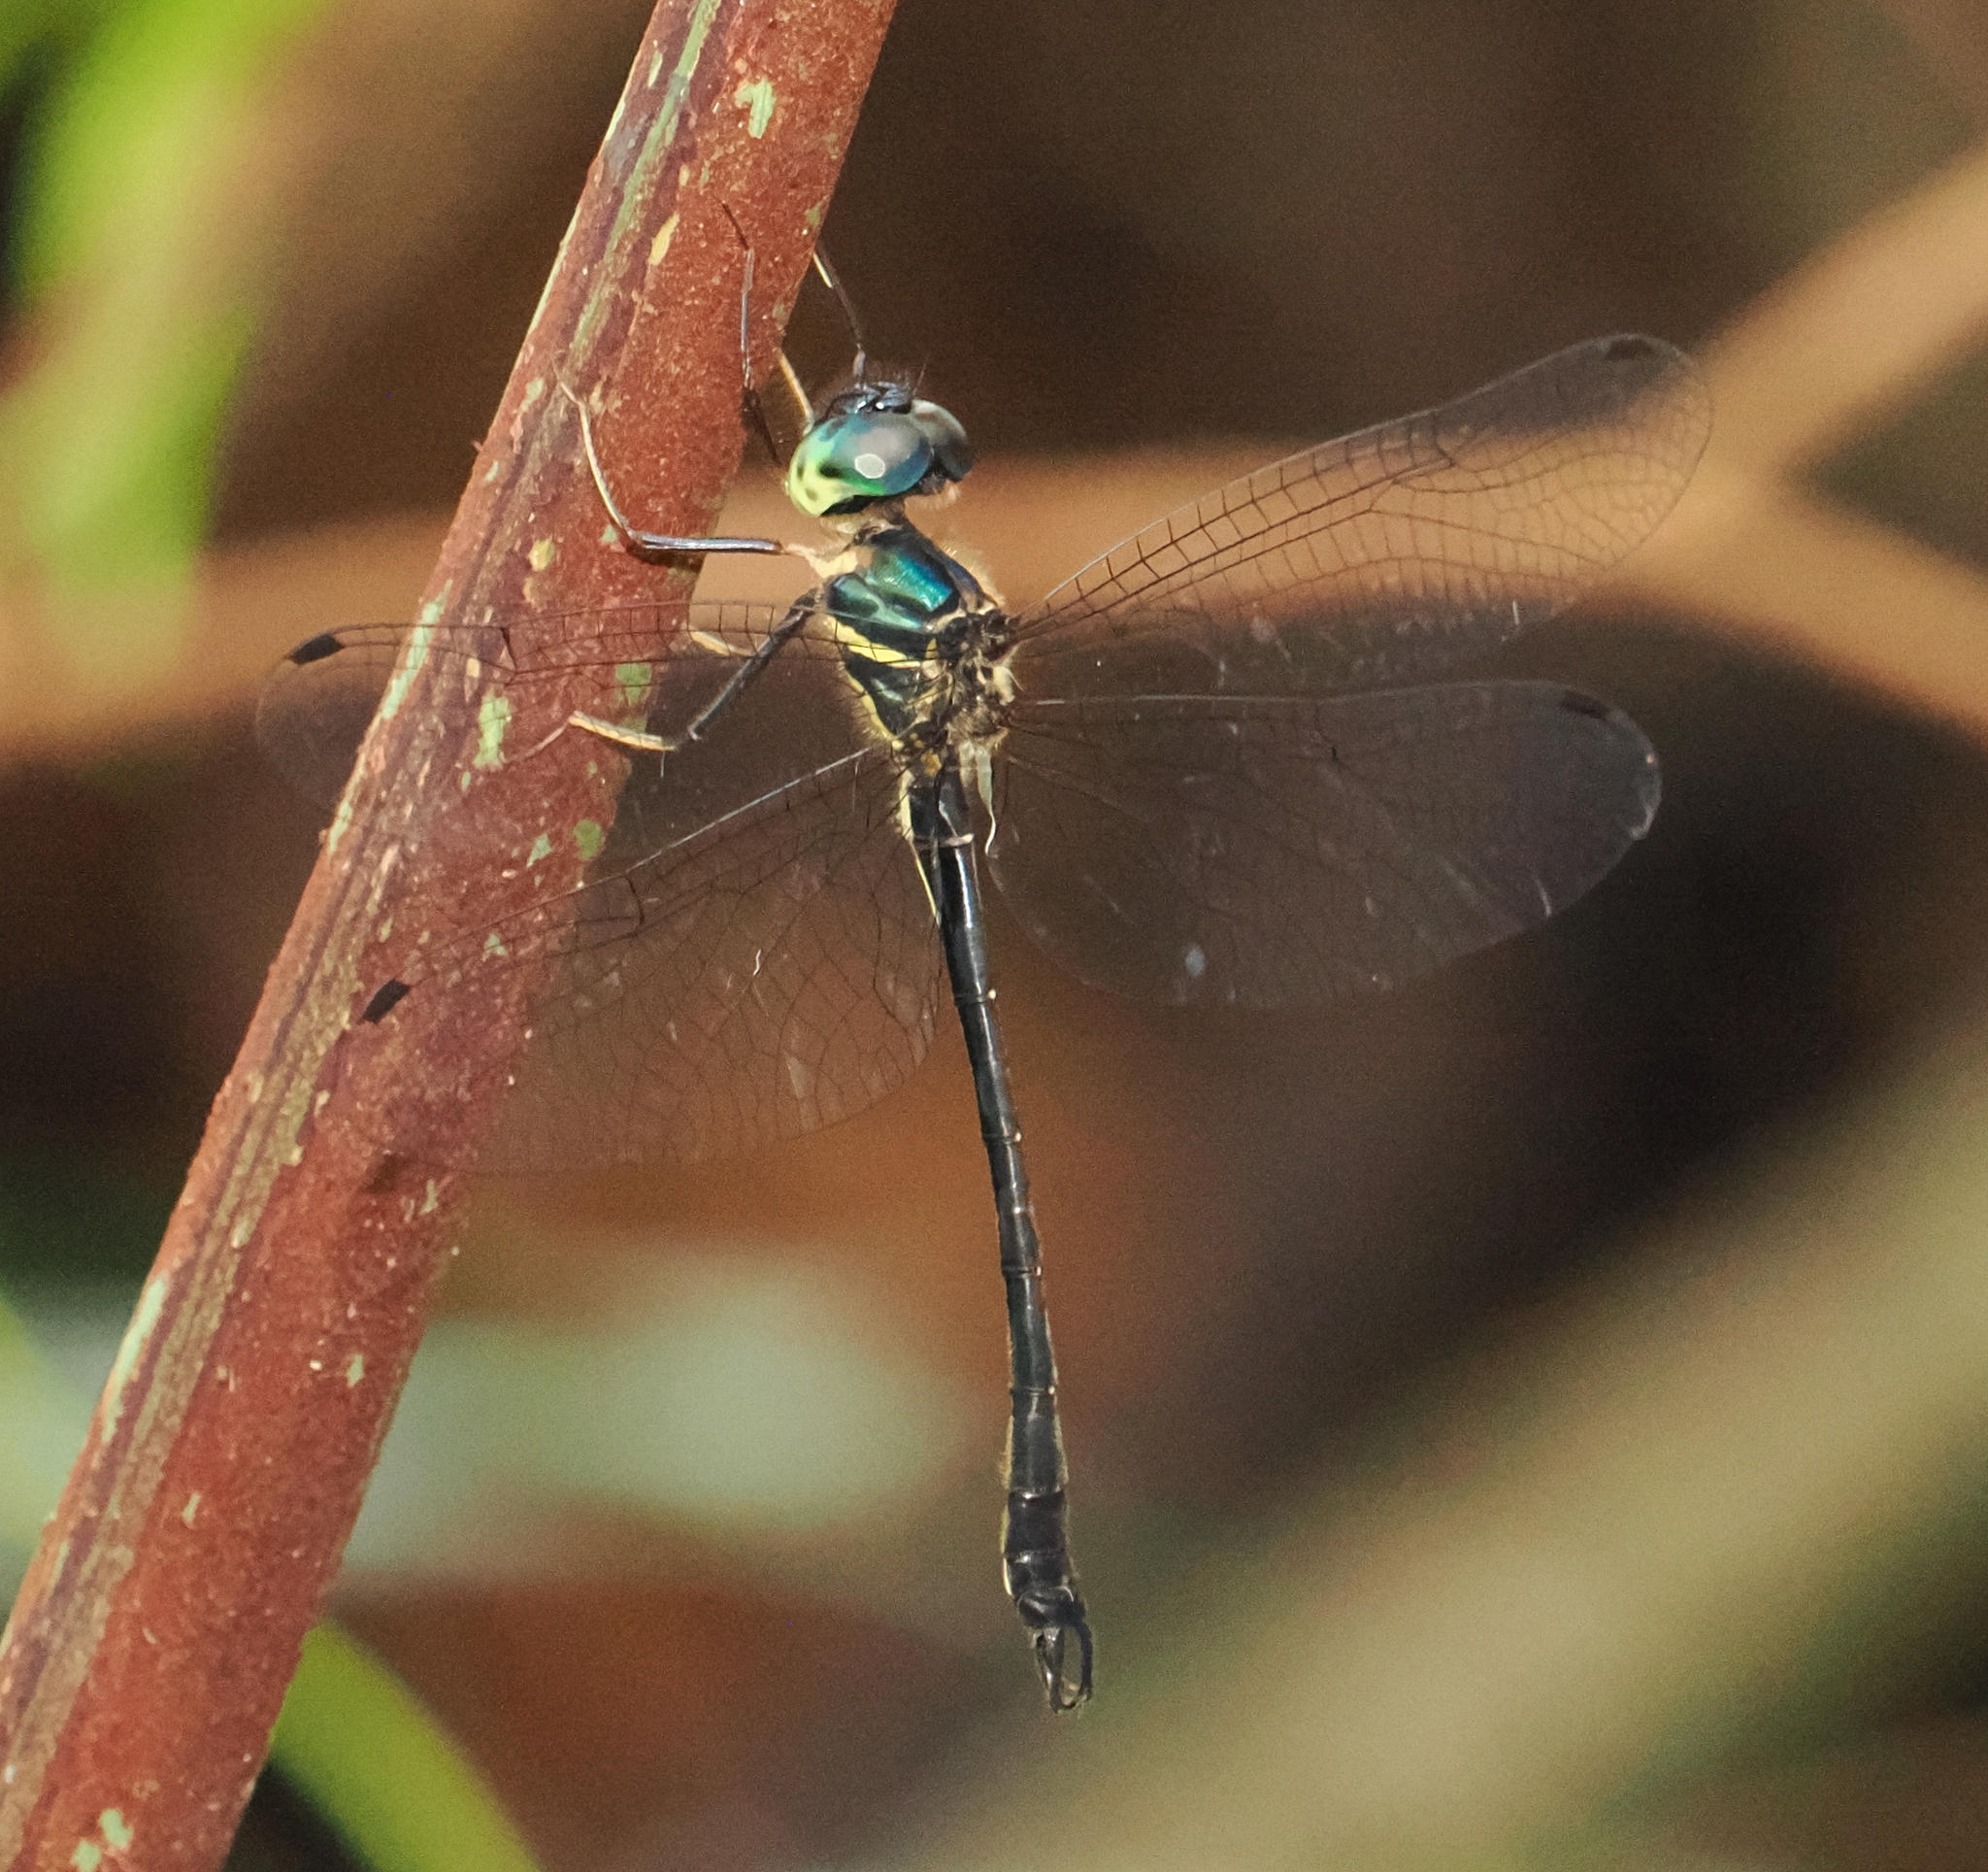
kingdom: Animalia
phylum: Arthropoda
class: Insecta
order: Odonata
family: Synthemistidae
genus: Idionyx
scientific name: Idionyx yolanda
